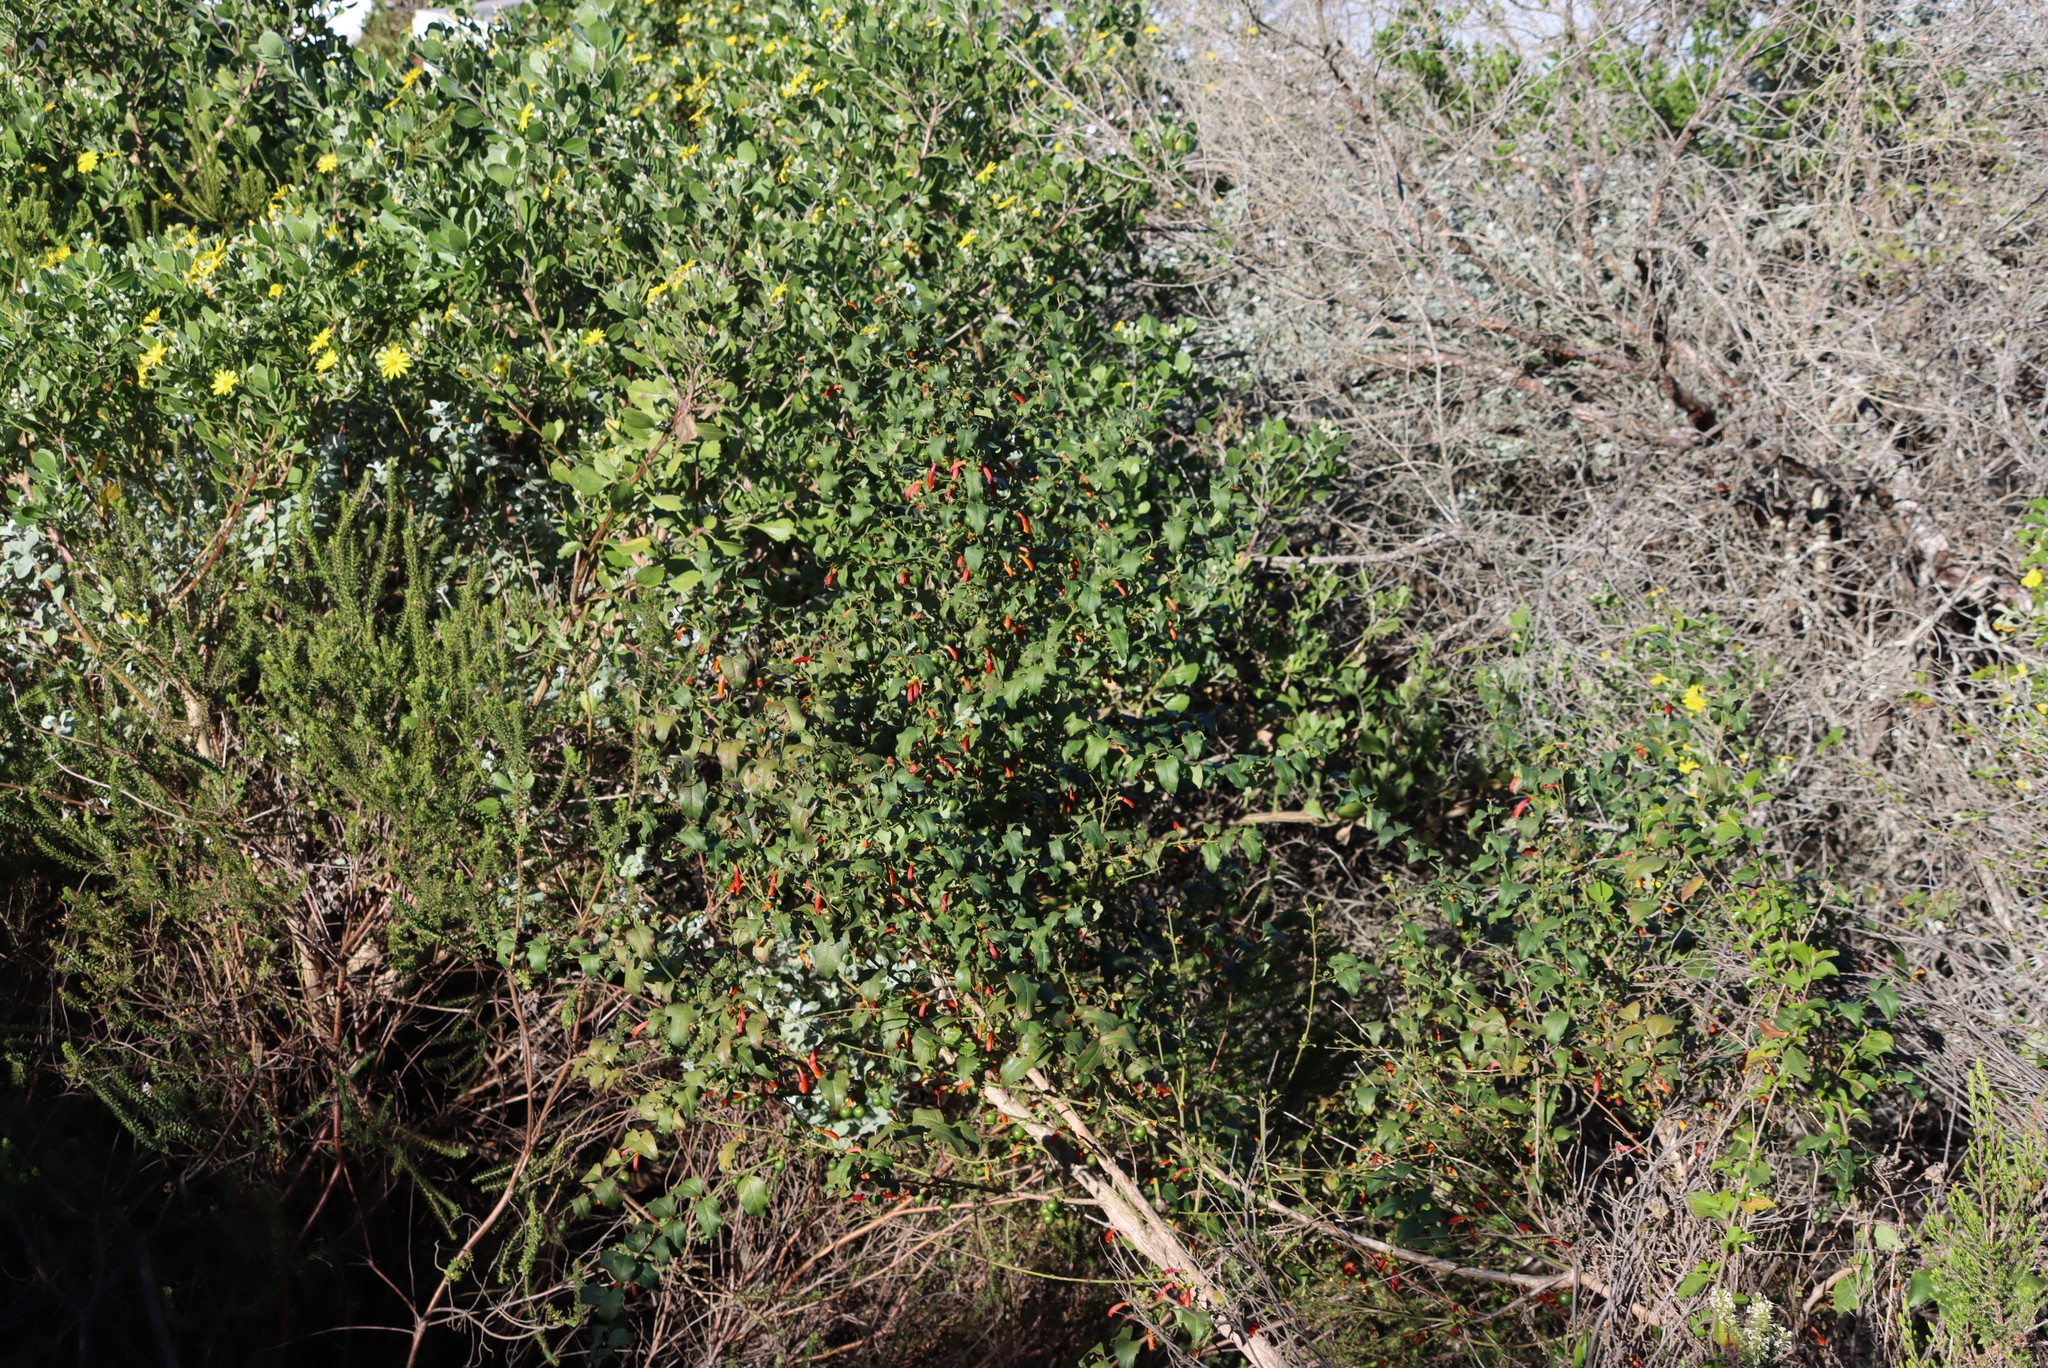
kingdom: Plantae
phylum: Tracheophyta
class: Magnoliopsida
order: Lamiales
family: Stilbaceae
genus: Halleria
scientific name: Halleria lucida
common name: Tree fuschia
